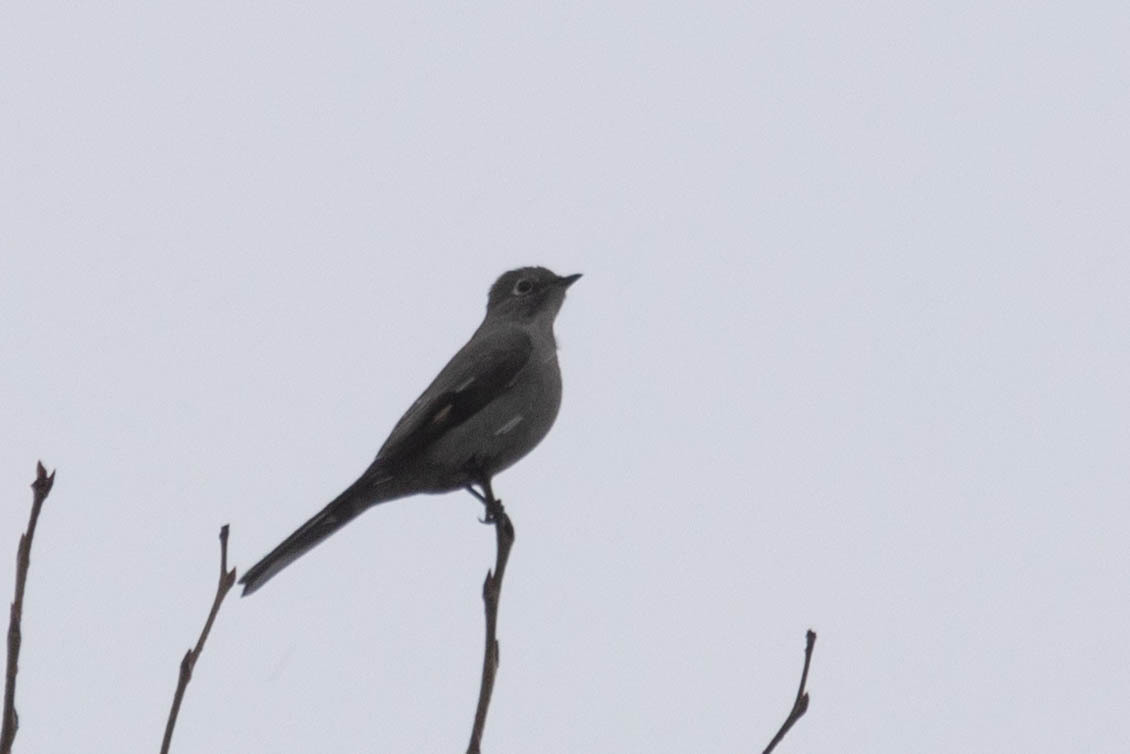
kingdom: Animalia
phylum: Chordata
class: Aves
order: Passeriformes
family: Turdidae
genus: Myadestes
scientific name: Myadestes townsendi
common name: Townsend's solitaire
